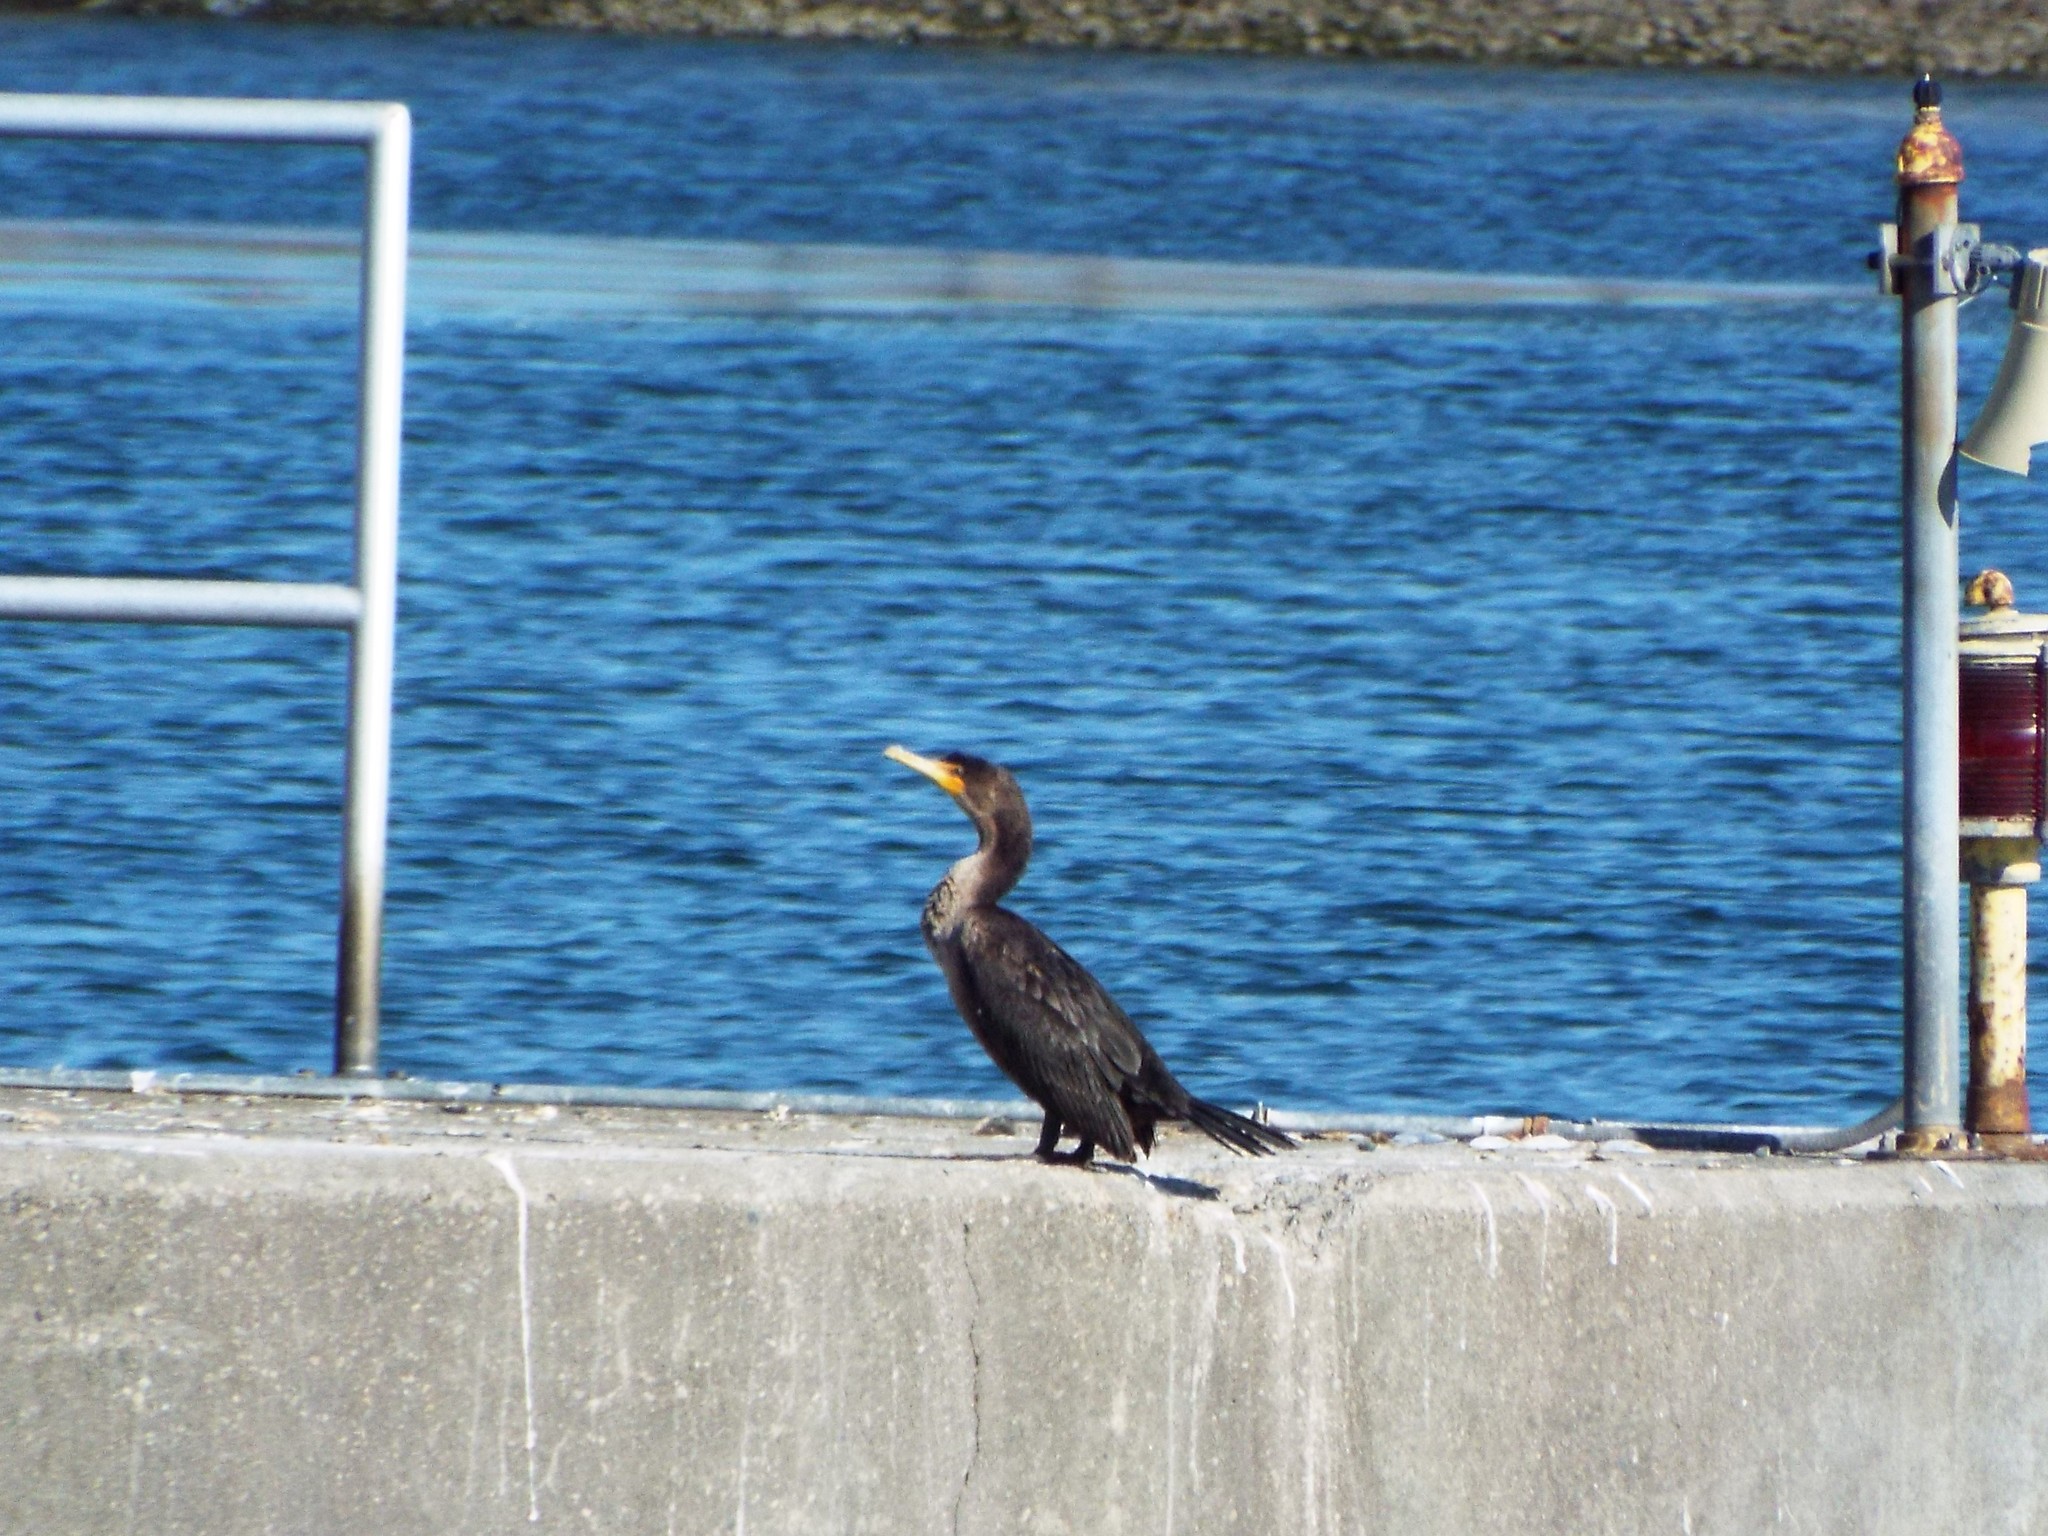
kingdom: Animalia
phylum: Chordata
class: Aves
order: Suliformes
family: Phalacrocoracidae
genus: Phalacrocorax
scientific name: Phalacrocorax auritus
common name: Double-crested cormorant
